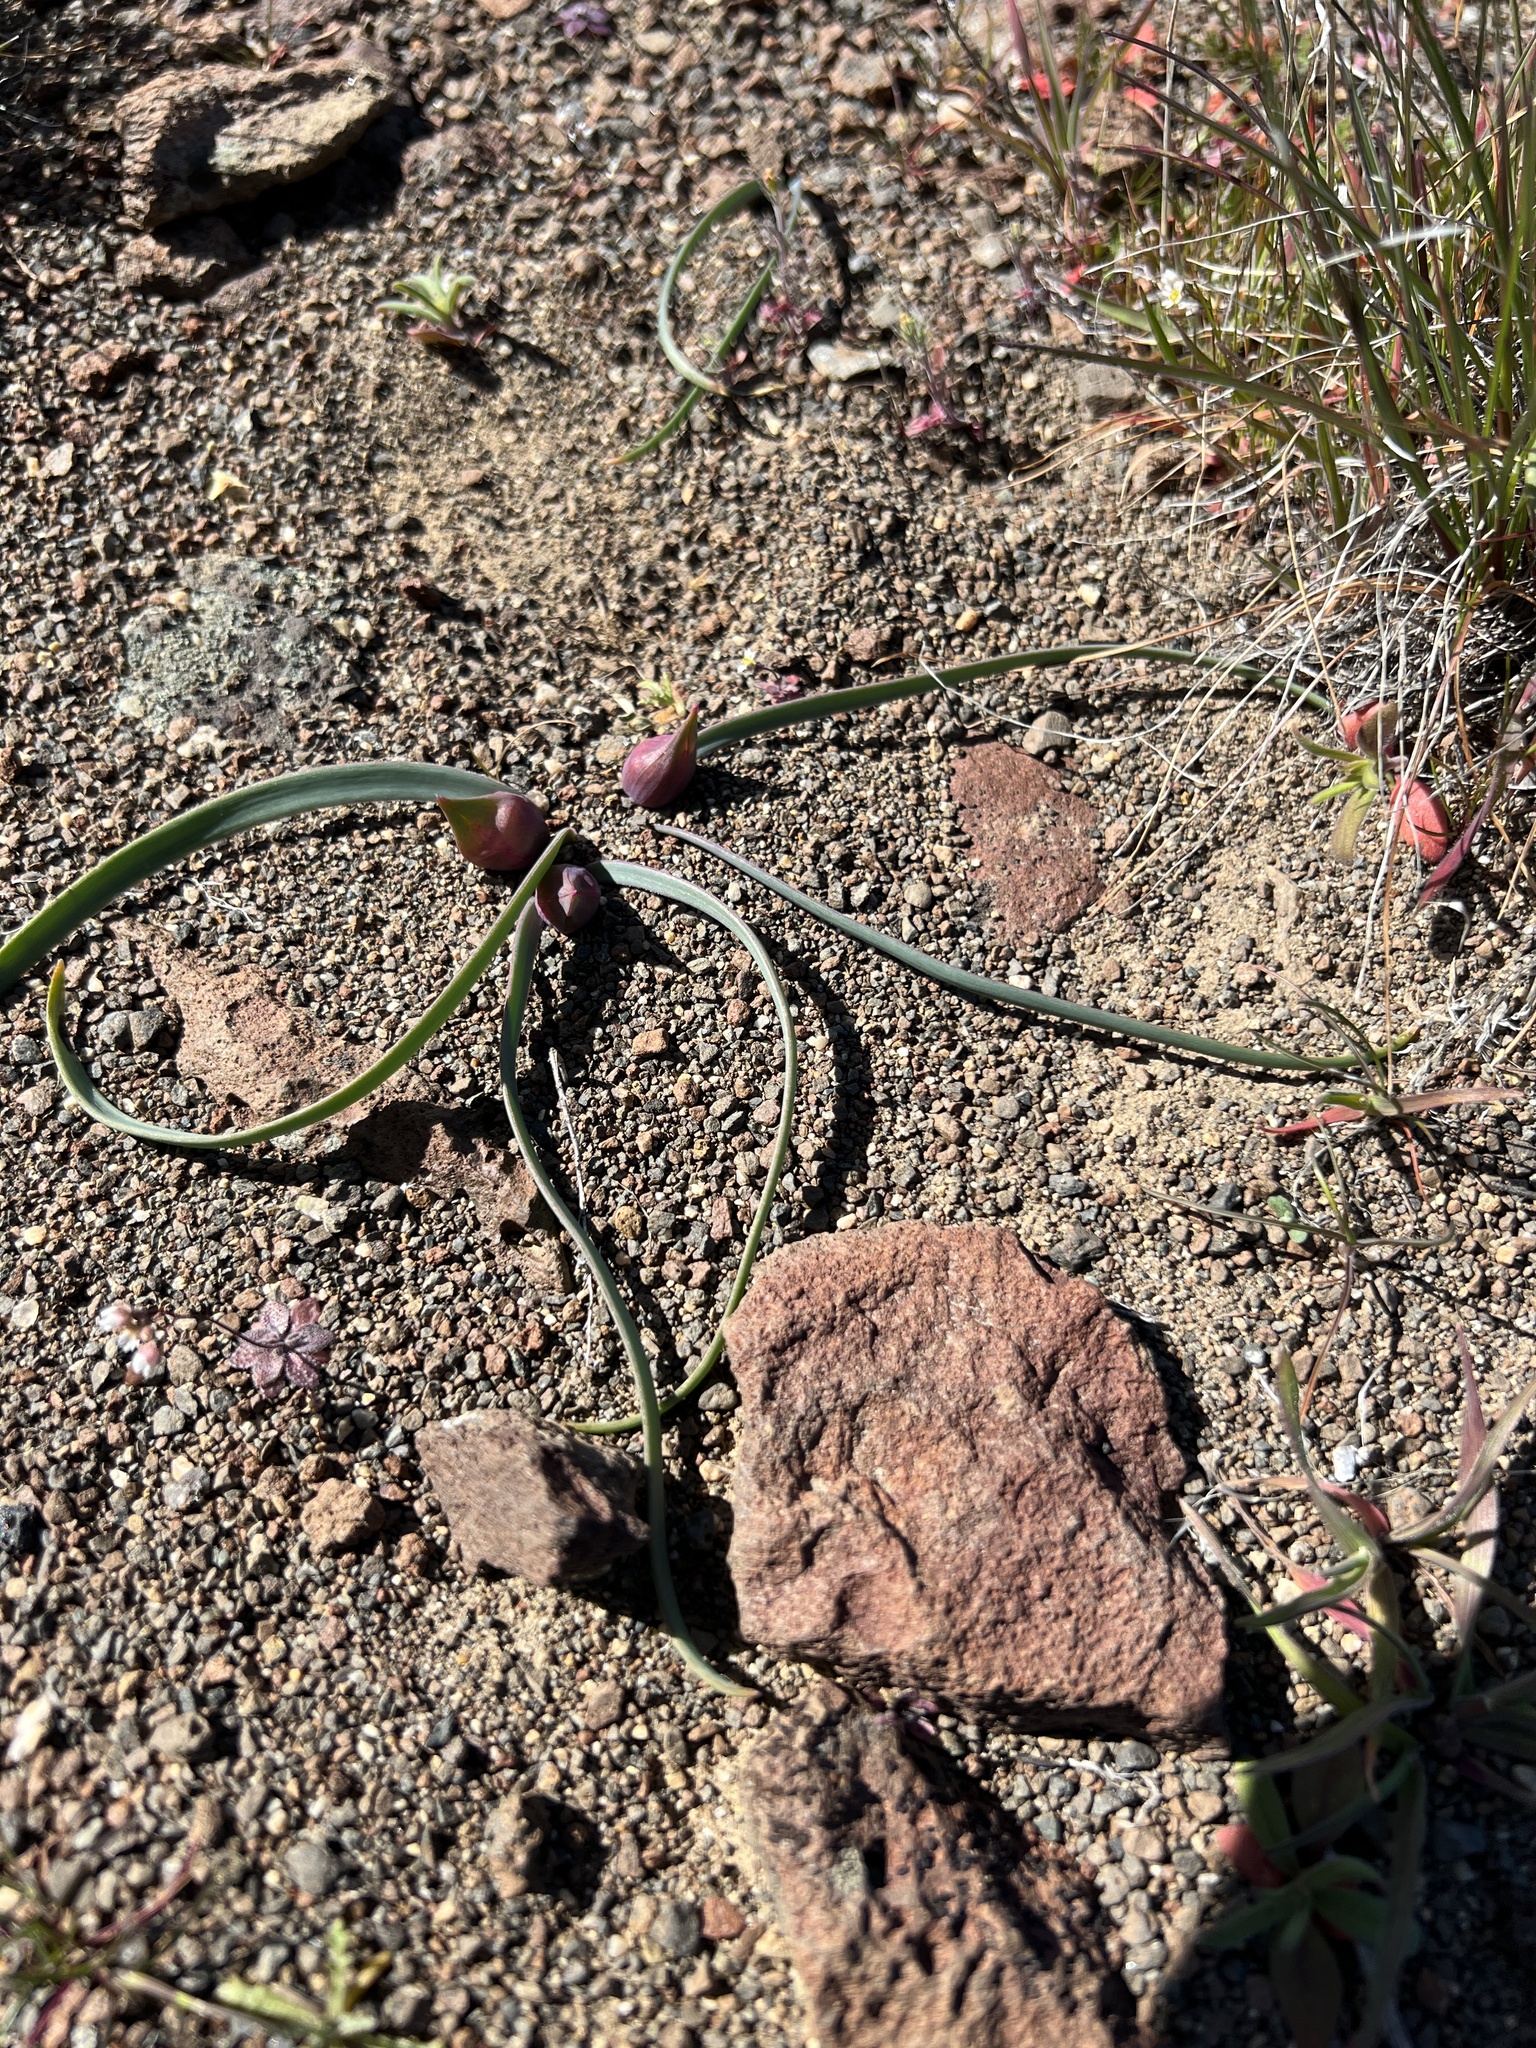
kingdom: Plantae
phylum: Tracheophyta
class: Liliopsida
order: Asparagales
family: Amaryllidaceae
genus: Allium
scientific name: Allium scilloides
